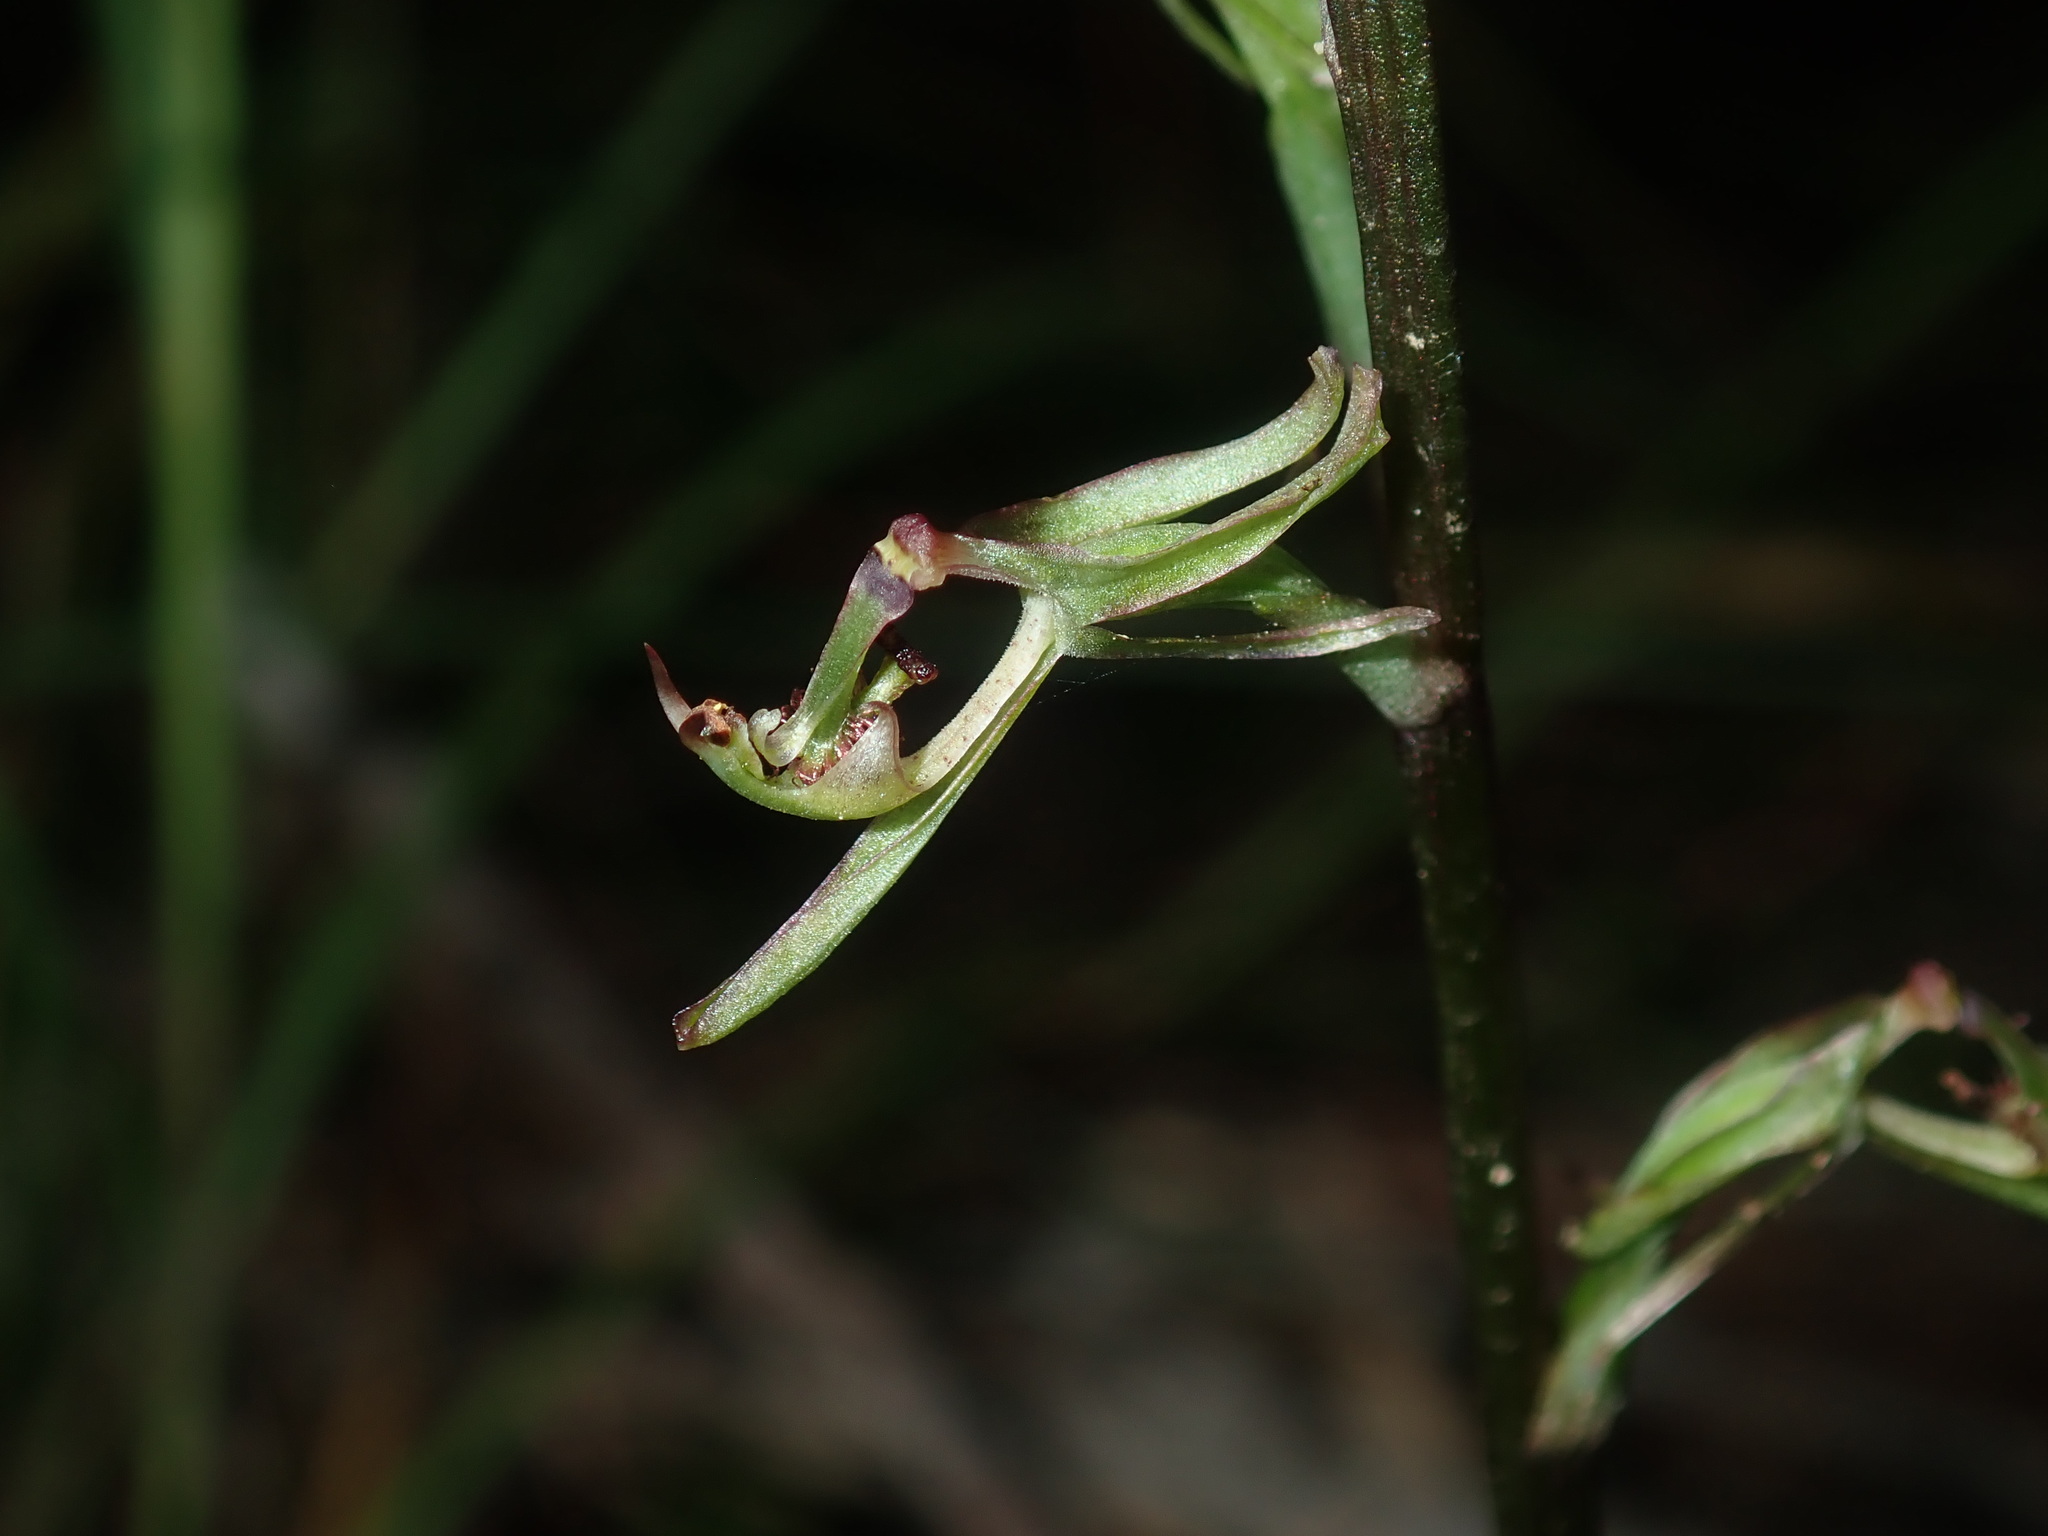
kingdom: Plantae
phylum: Tracheophyta
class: Liliopsida
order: Asparagales
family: Orchidaceae
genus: Arthrochilus
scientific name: Arthrochilus prolixus
